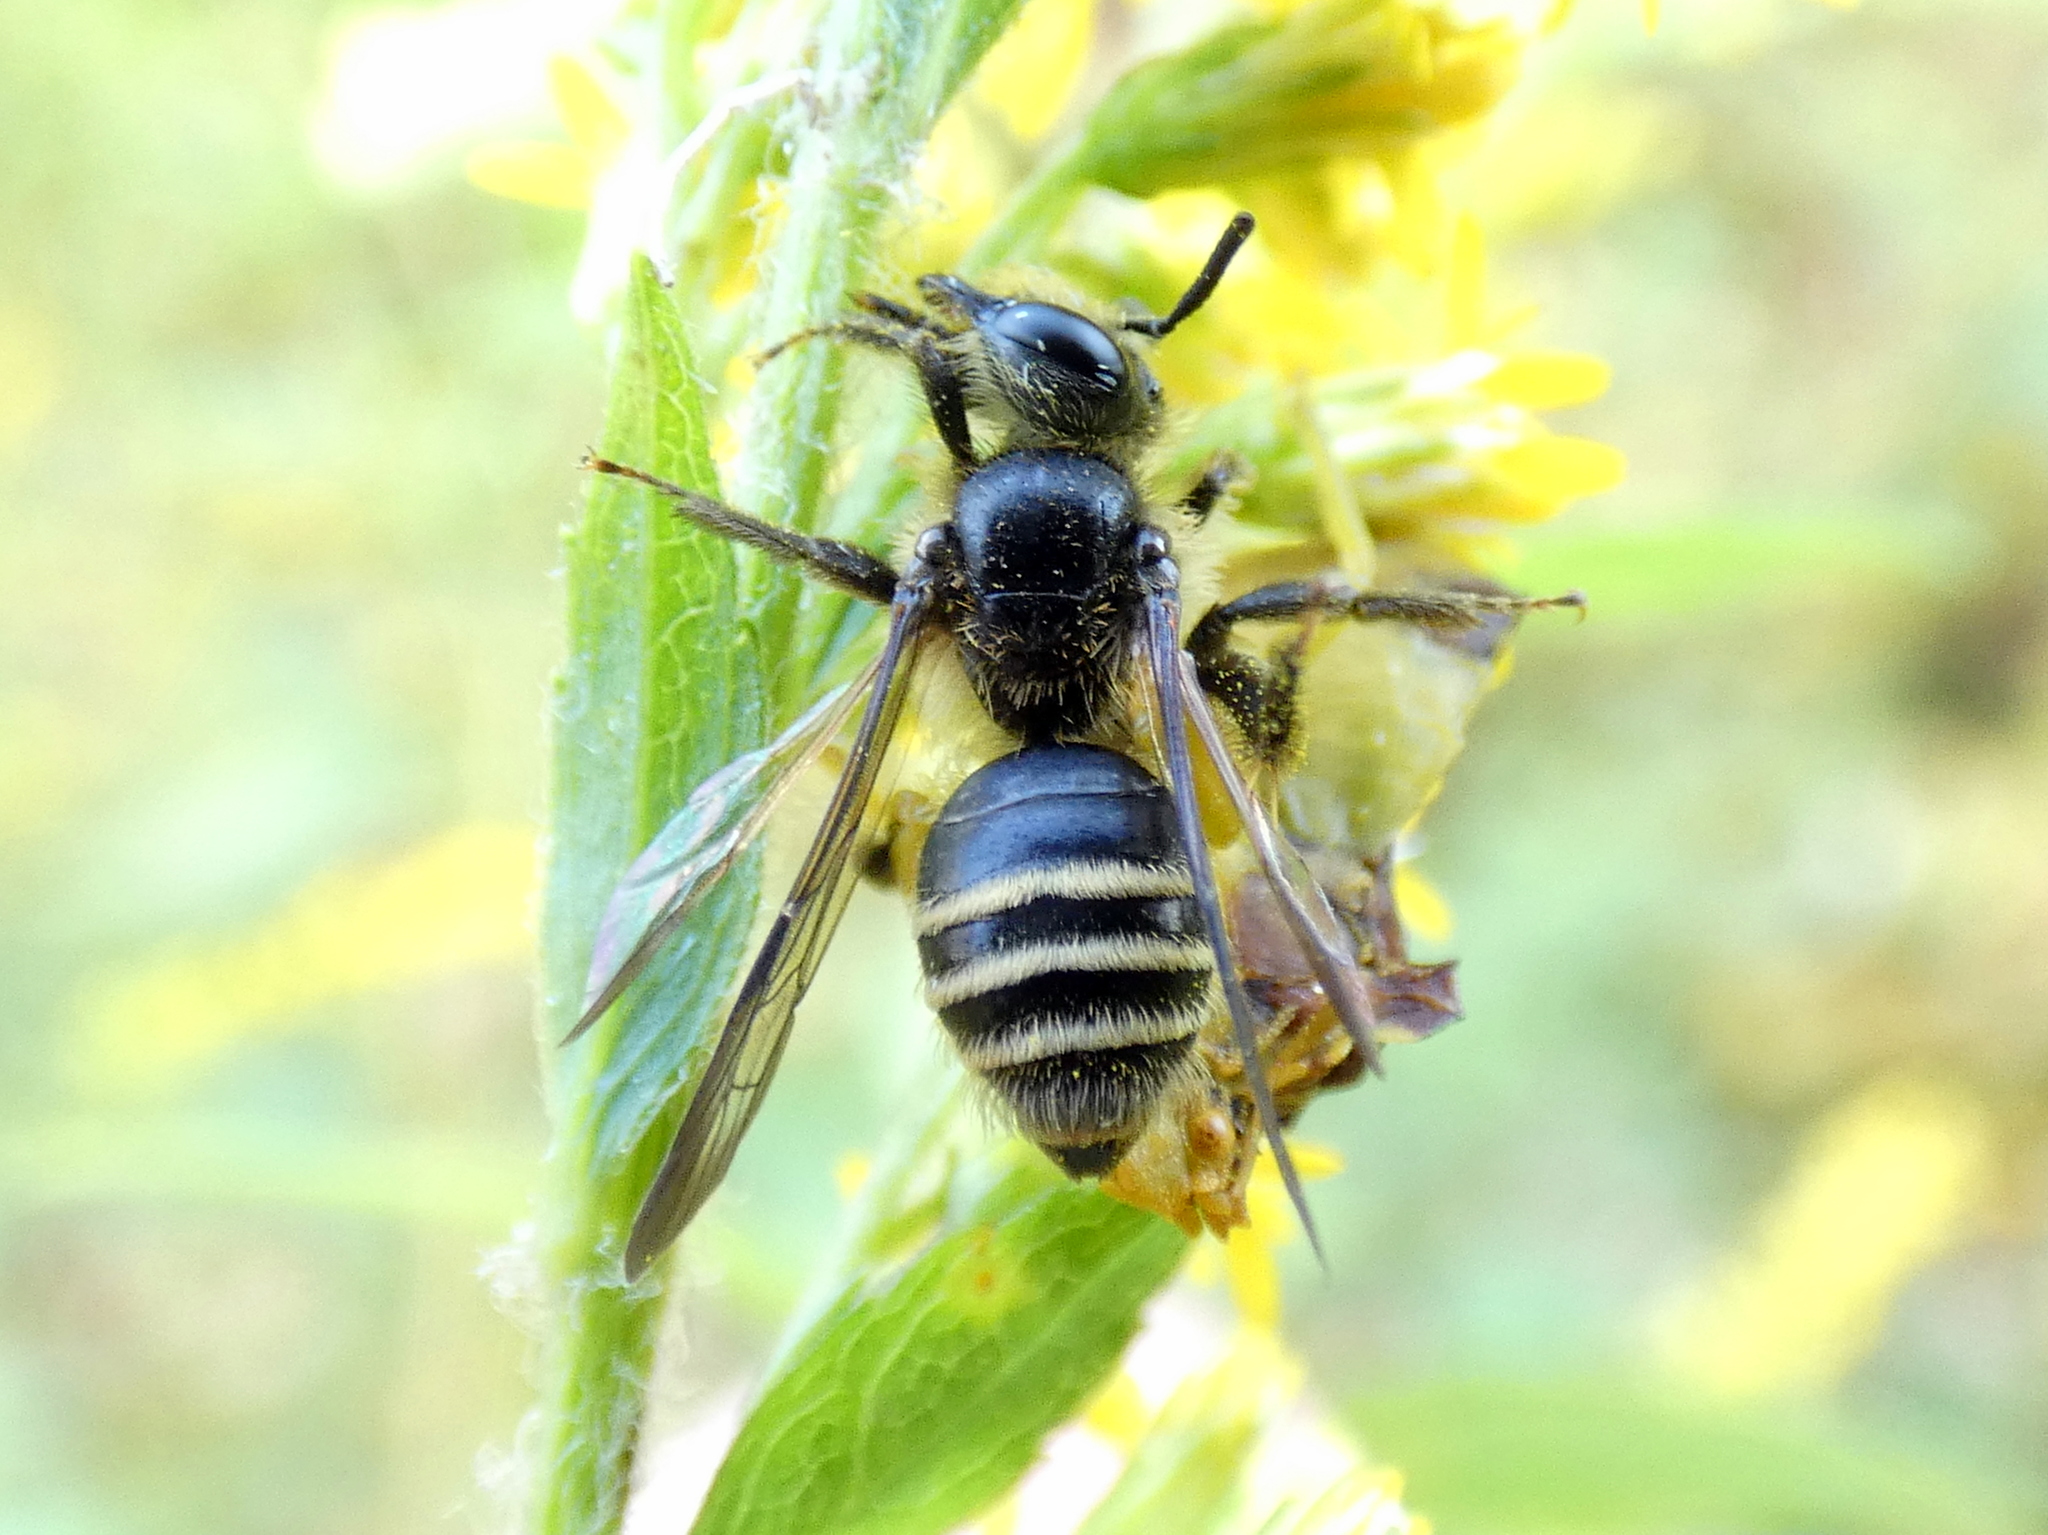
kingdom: Animalia
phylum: Arthropoda
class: Insecta
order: Hymenoptera
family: Andrenidae
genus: Andrena
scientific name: Andrena nubecula
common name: Cloudy-winged mining bee
